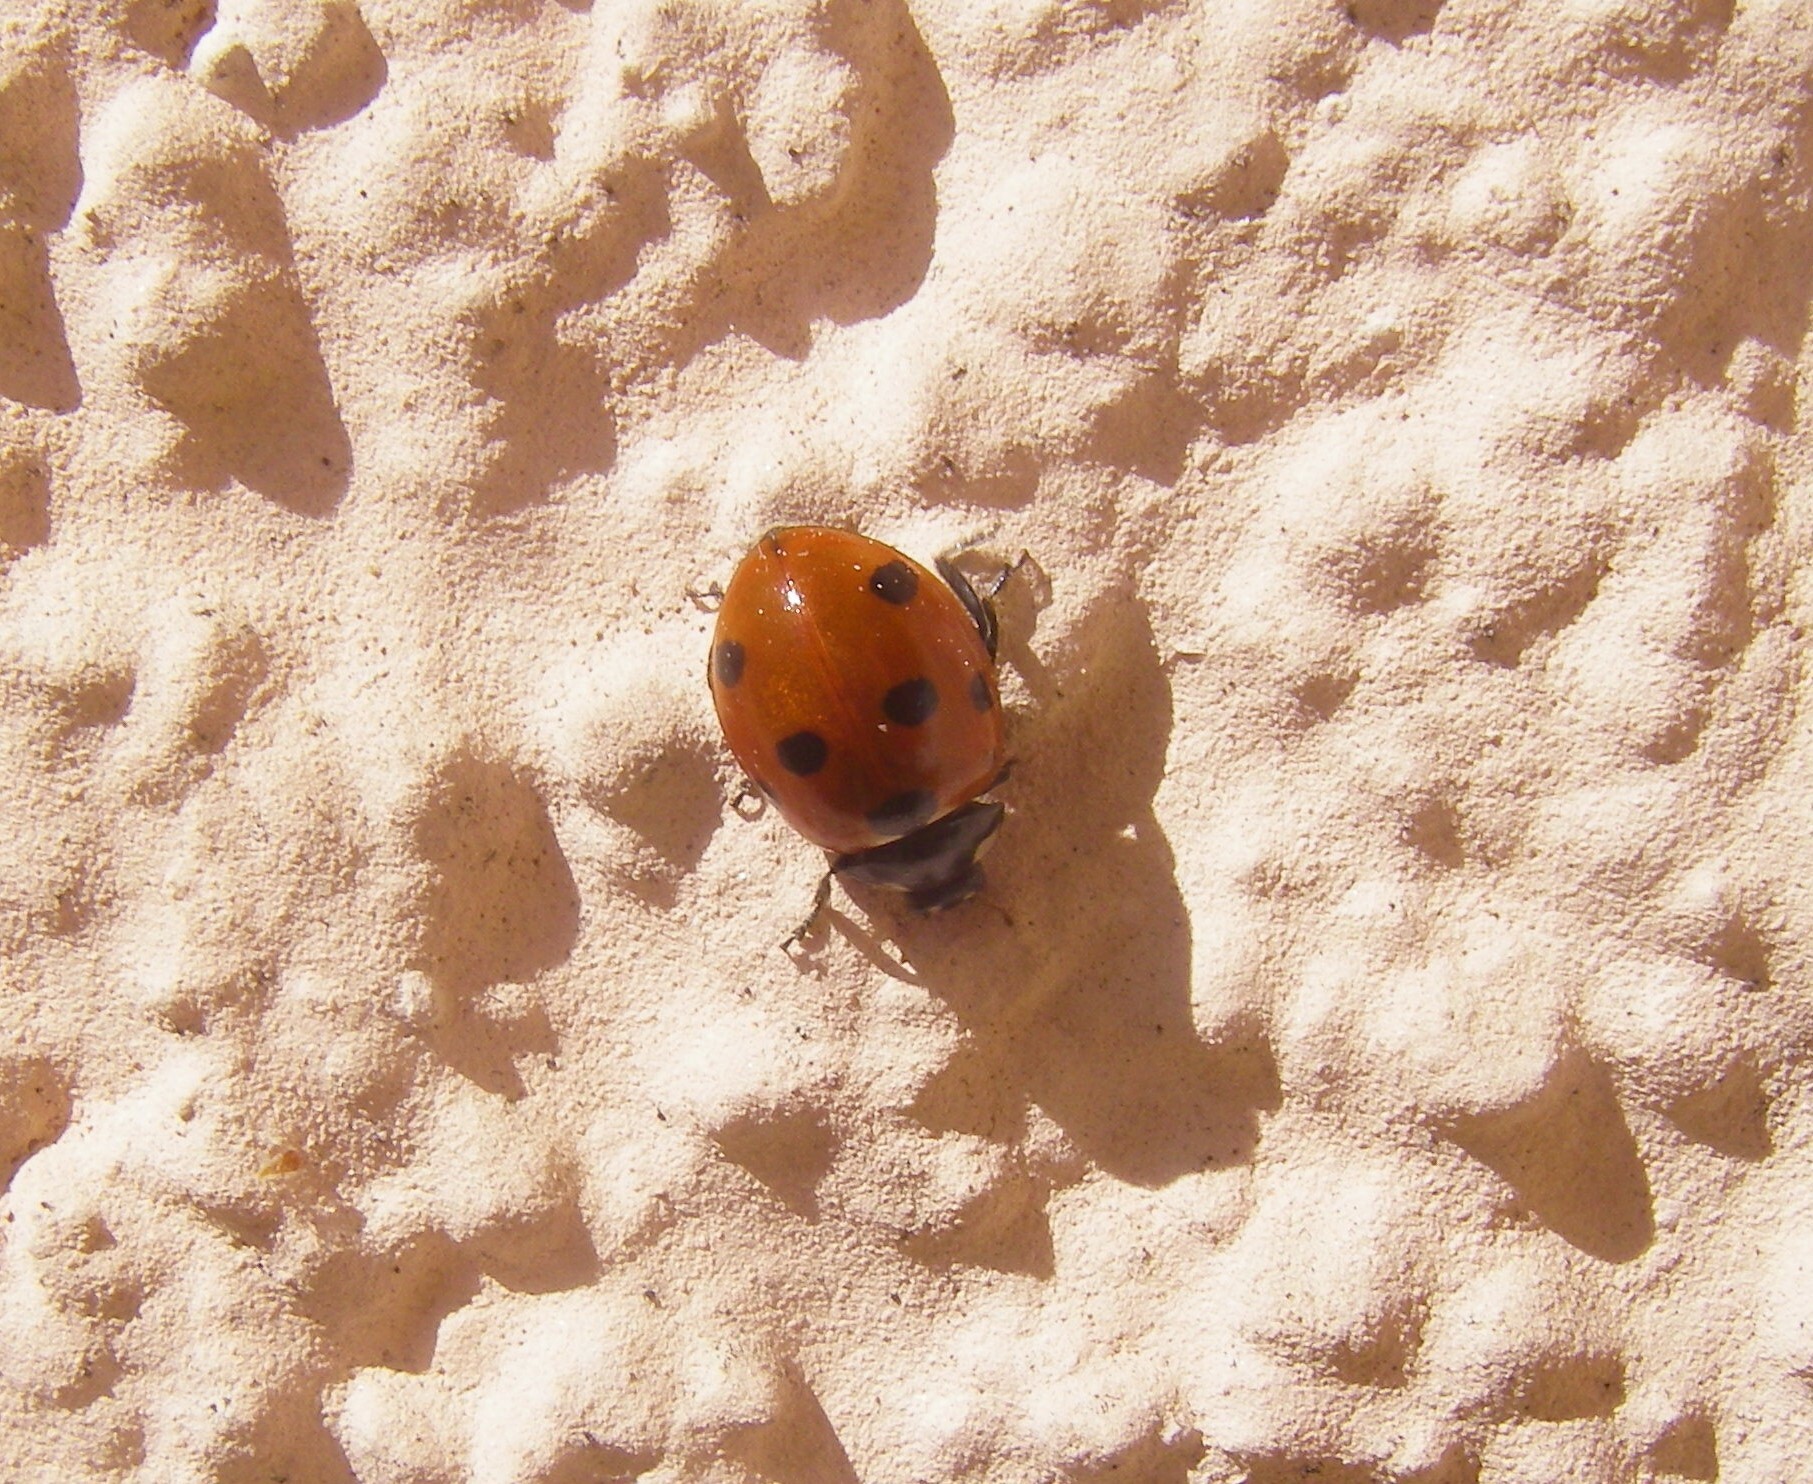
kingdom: Animalia
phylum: Arthropoda
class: Insecta
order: Coleoptera
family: Coccinellidae
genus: Coccinella
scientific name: Coccinella septempunctata
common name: Sevenspotted lady beetle
